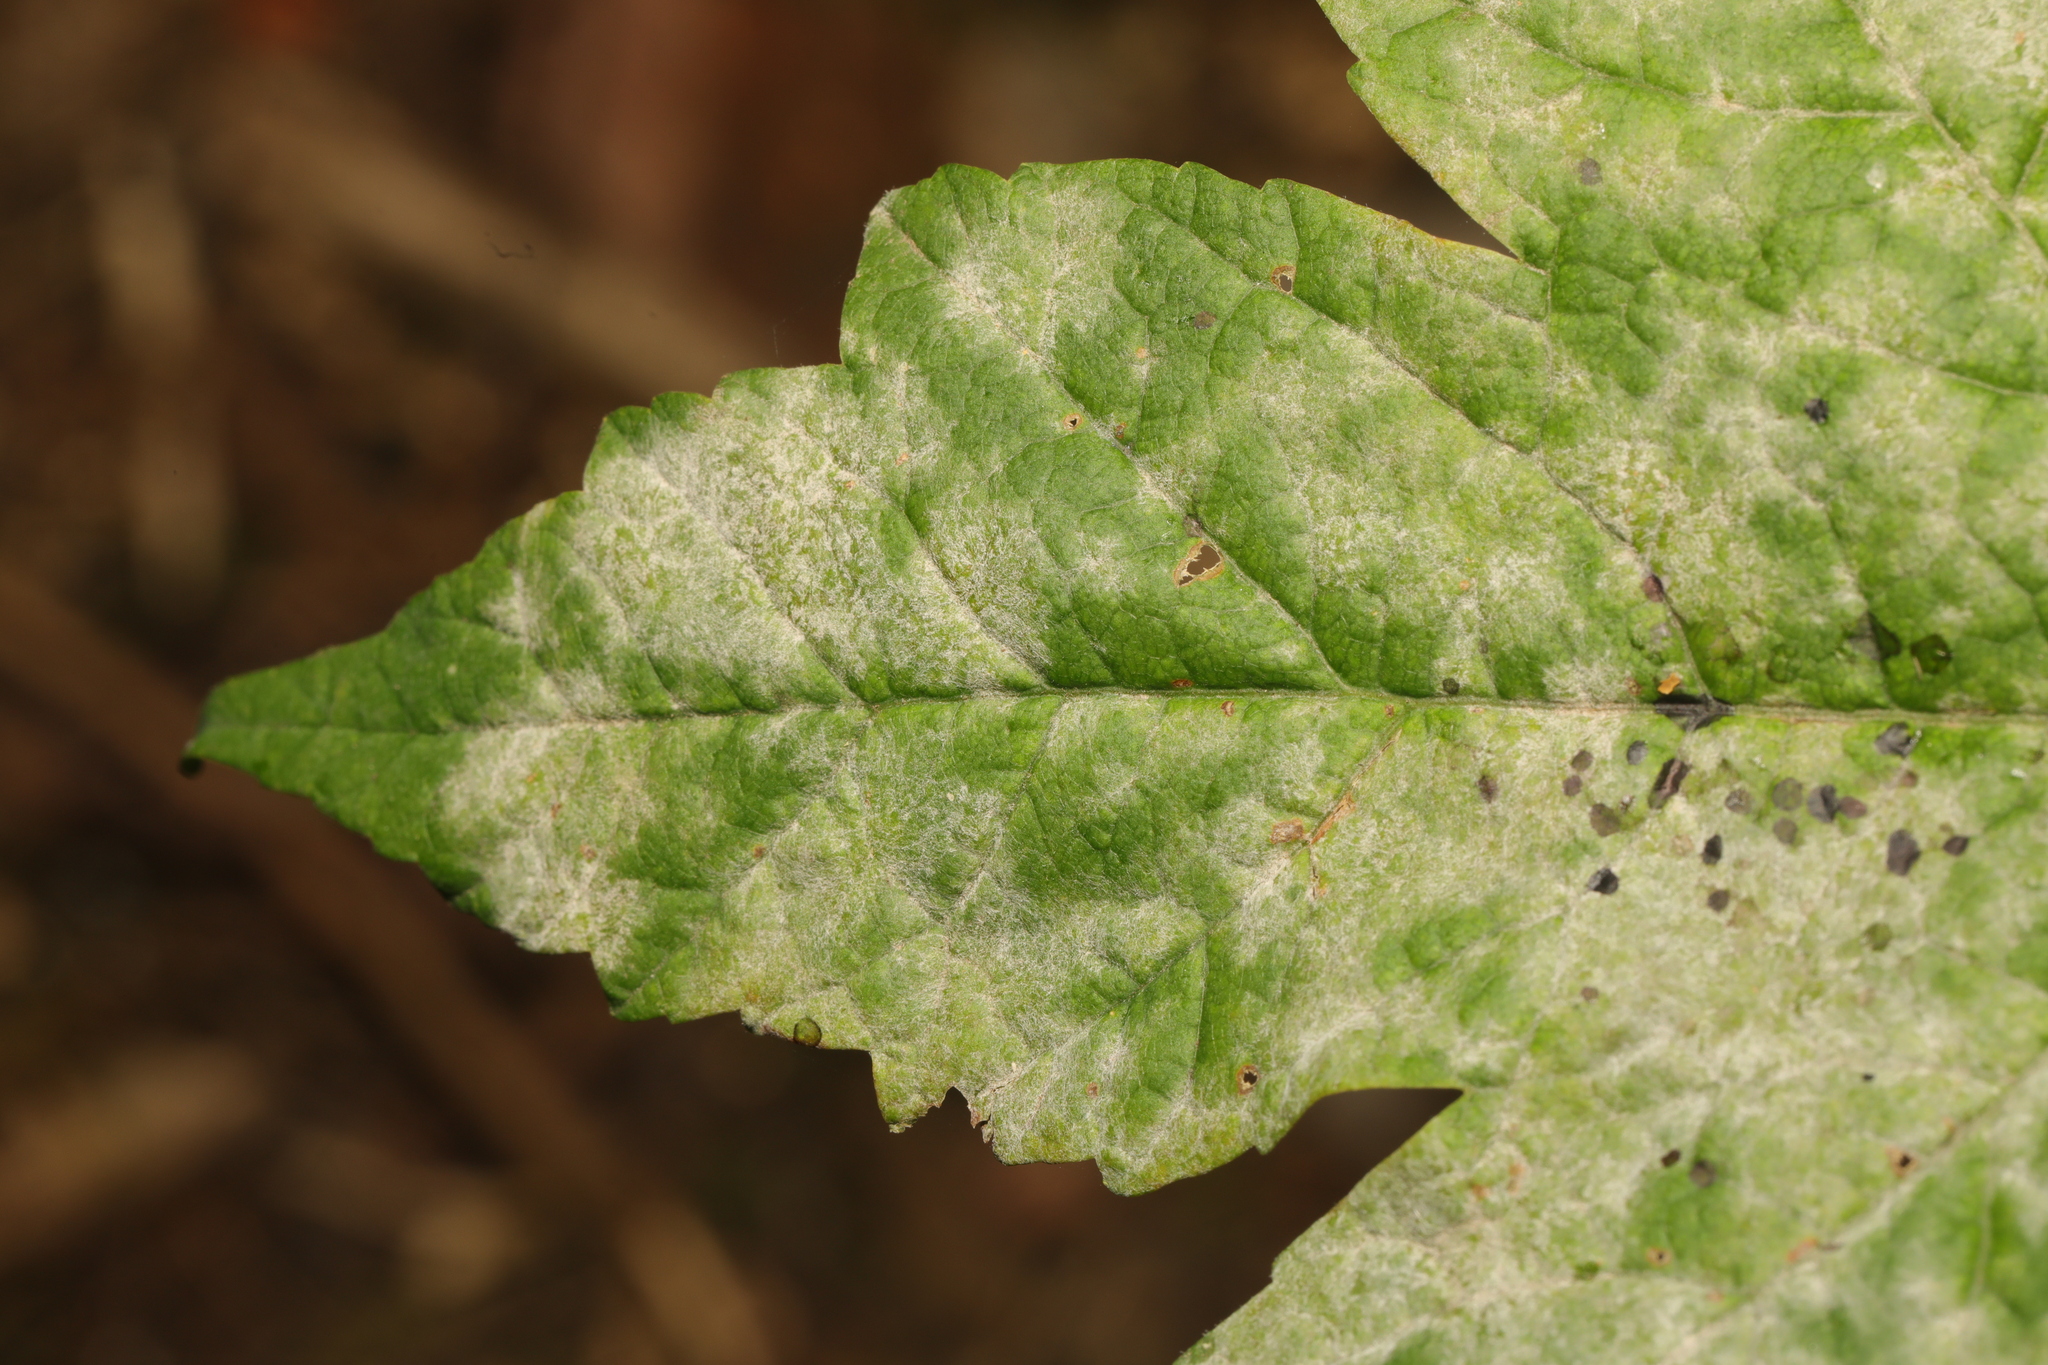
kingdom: Fungi
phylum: Ascomycota
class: Leotiomycetes
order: Helotiales
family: Erysiphaceae
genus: Sawadaea
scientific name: Sawadaea bicornis
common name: Maple mildew
